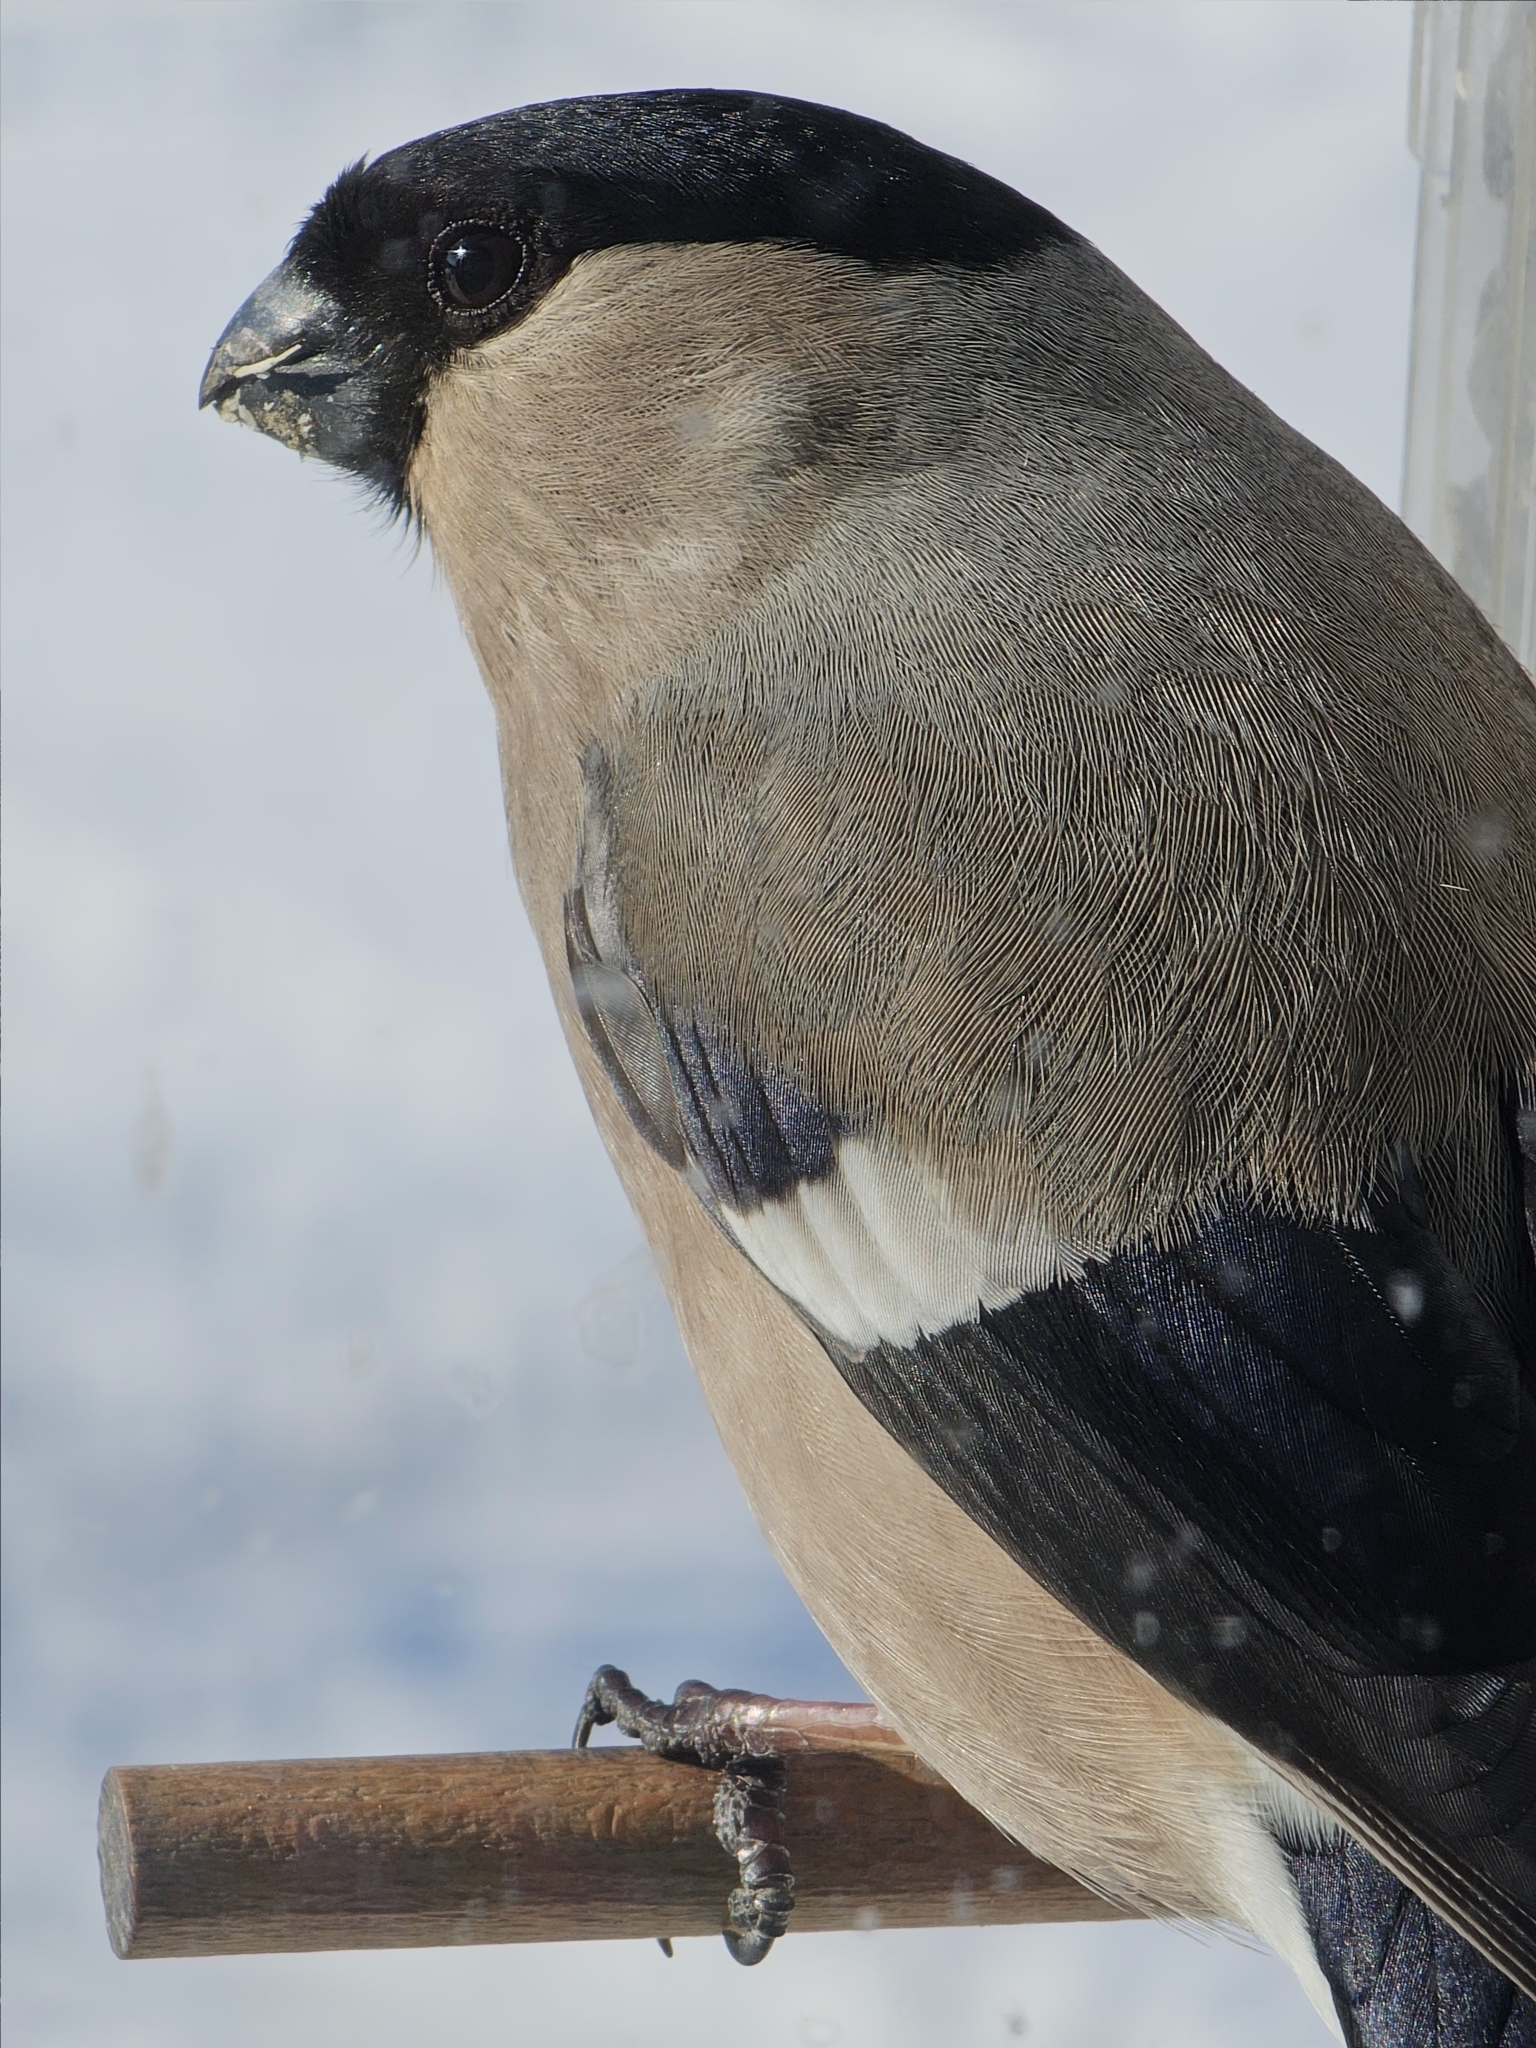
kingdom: Animalia
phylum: Chordata
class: Aves
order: Passeriformes
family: Fringillidae
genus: Pyrrhula
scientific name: Pyrrhula pyrrhula
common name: Eurasian bullfinch
